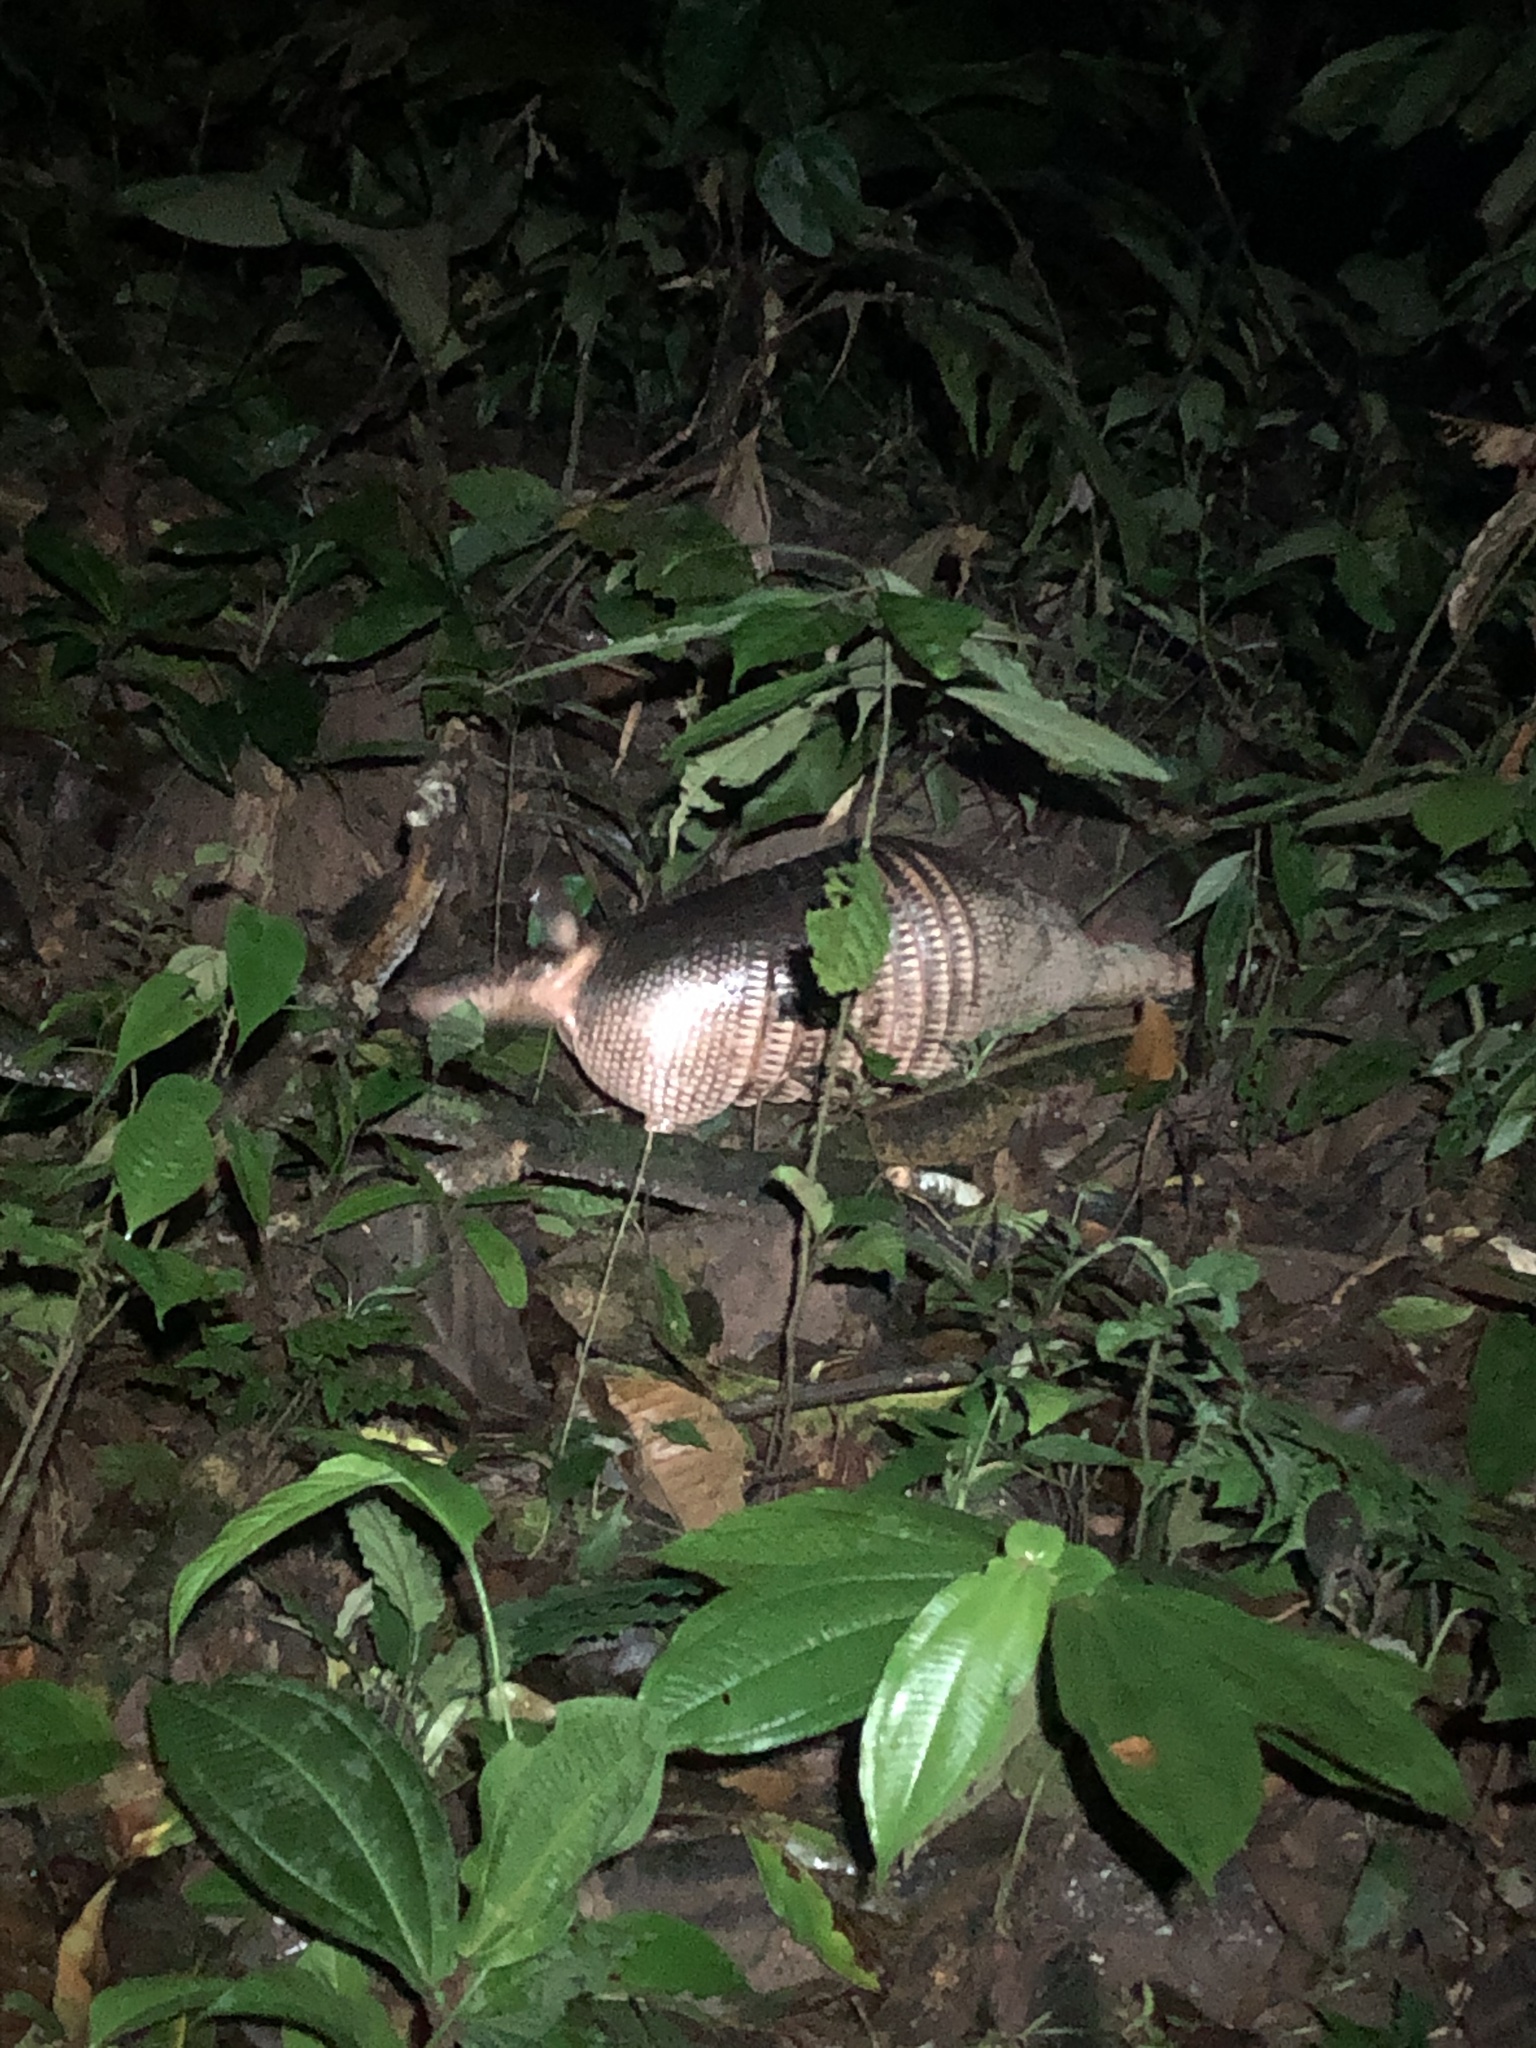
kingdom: Animalia
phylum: Chordata
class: Mammalia
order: Cingulata
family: Dasypodidae
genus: Dasypus
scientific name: Dasypus kappleri
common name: Greater long-nosed armadillo
